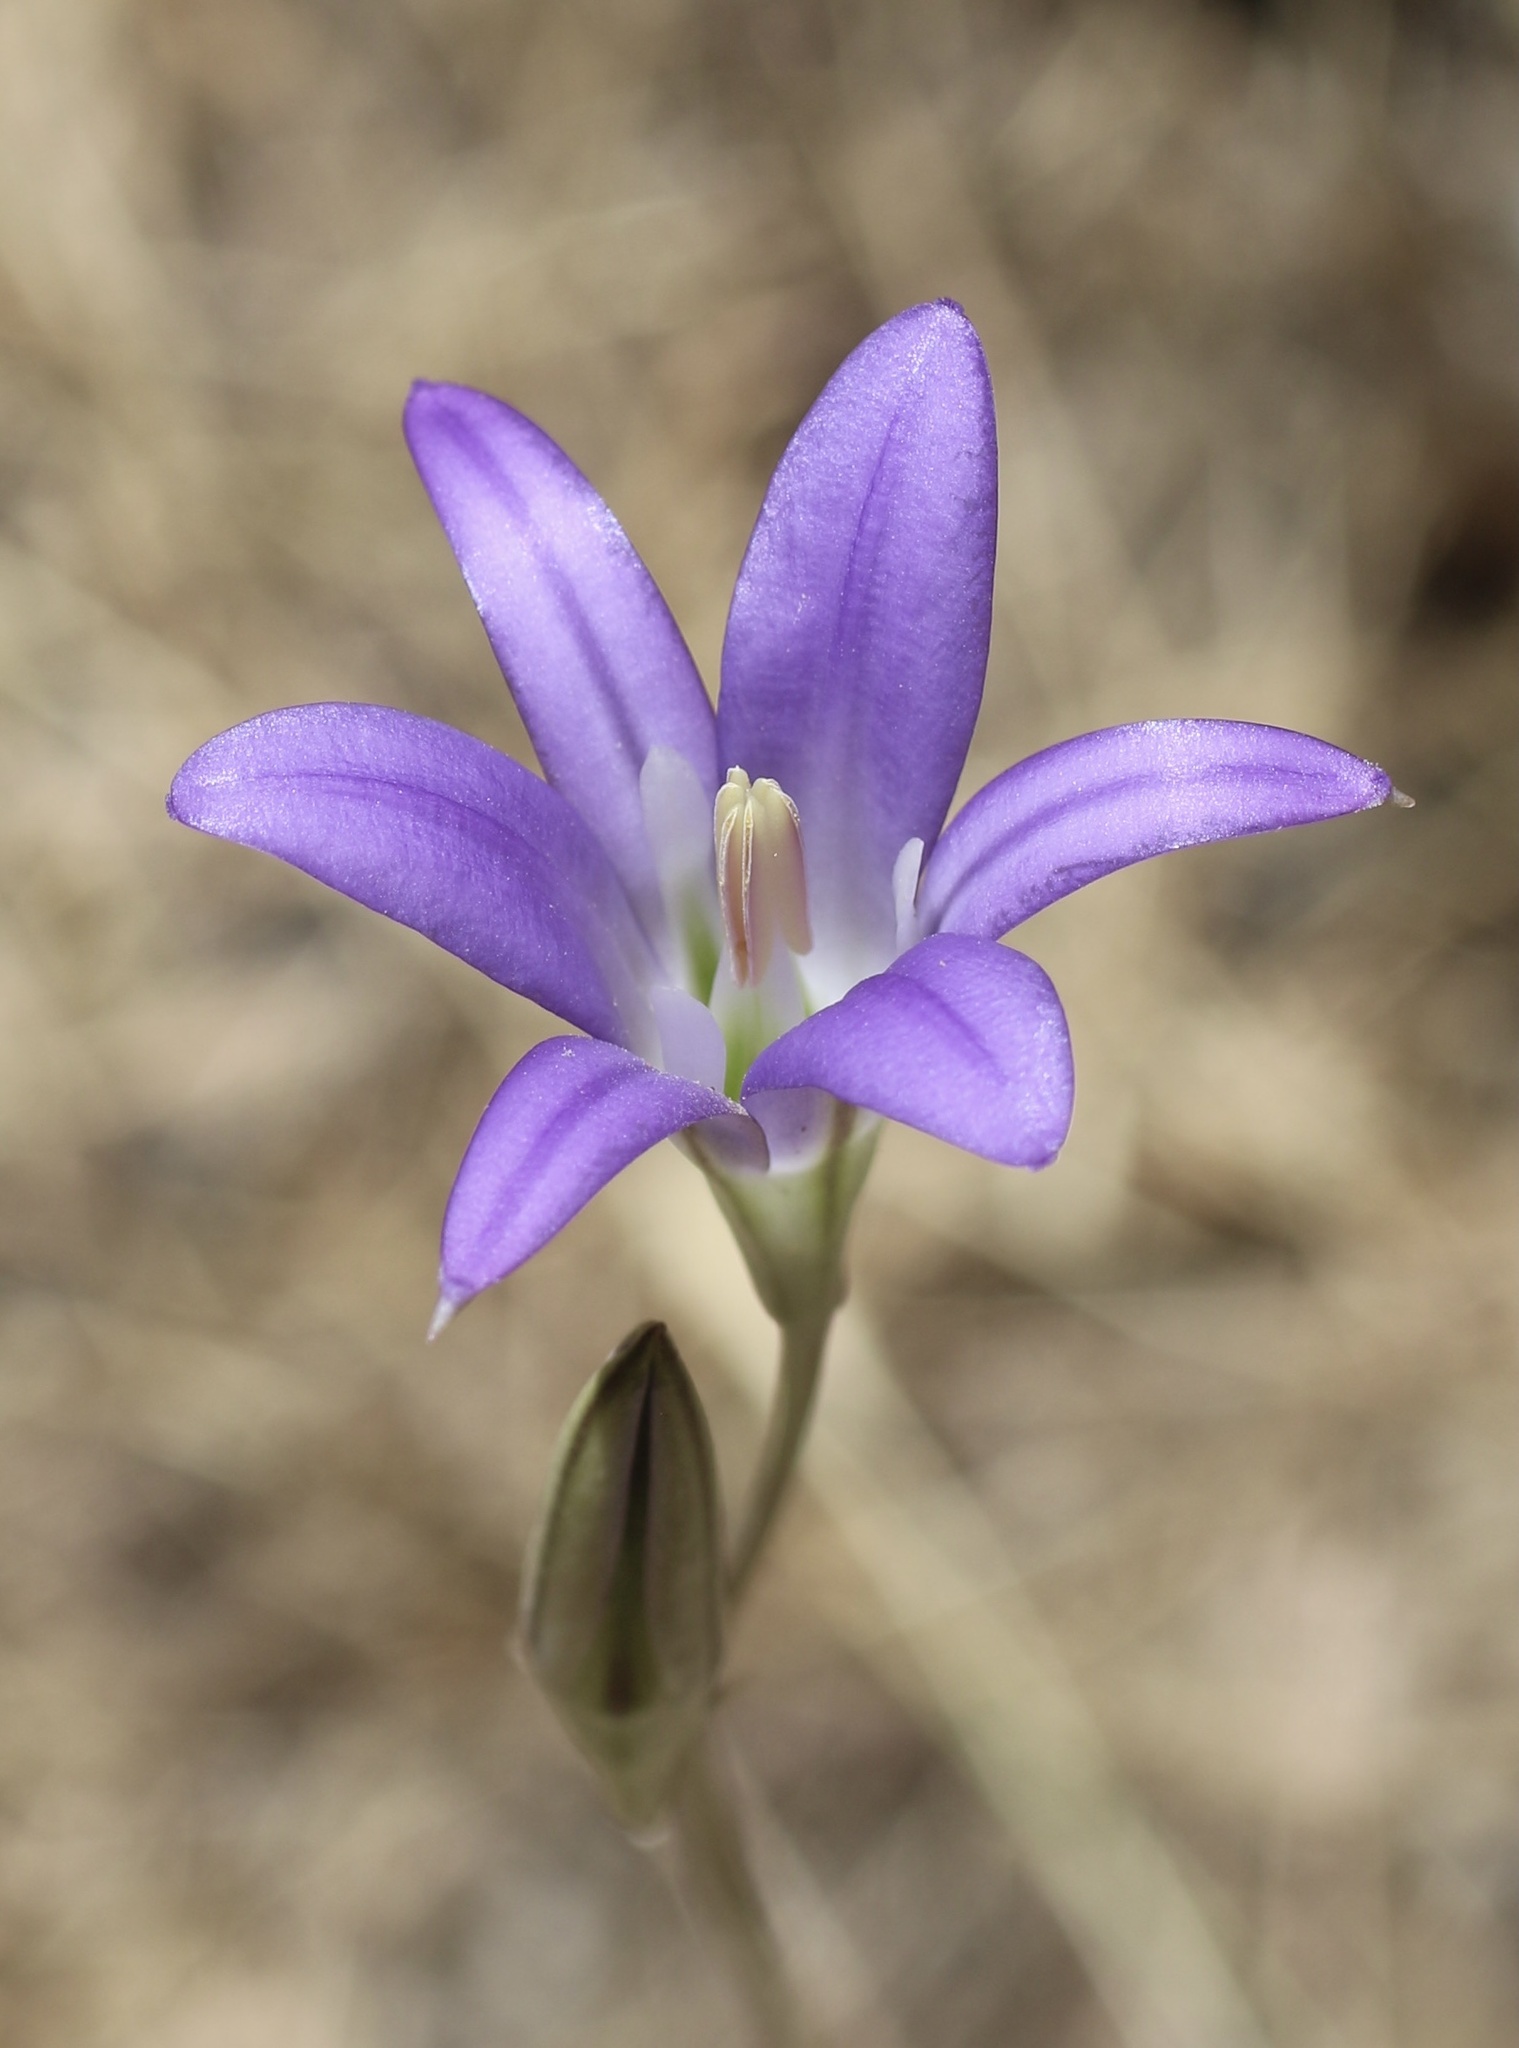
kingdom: Plantae
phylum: Tracheophyta
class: Liliopsida
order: Asparagales
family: Asparagaceae
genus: Brodiaea
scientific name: Brodiaea elegans
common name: Elegant cluster-lily
